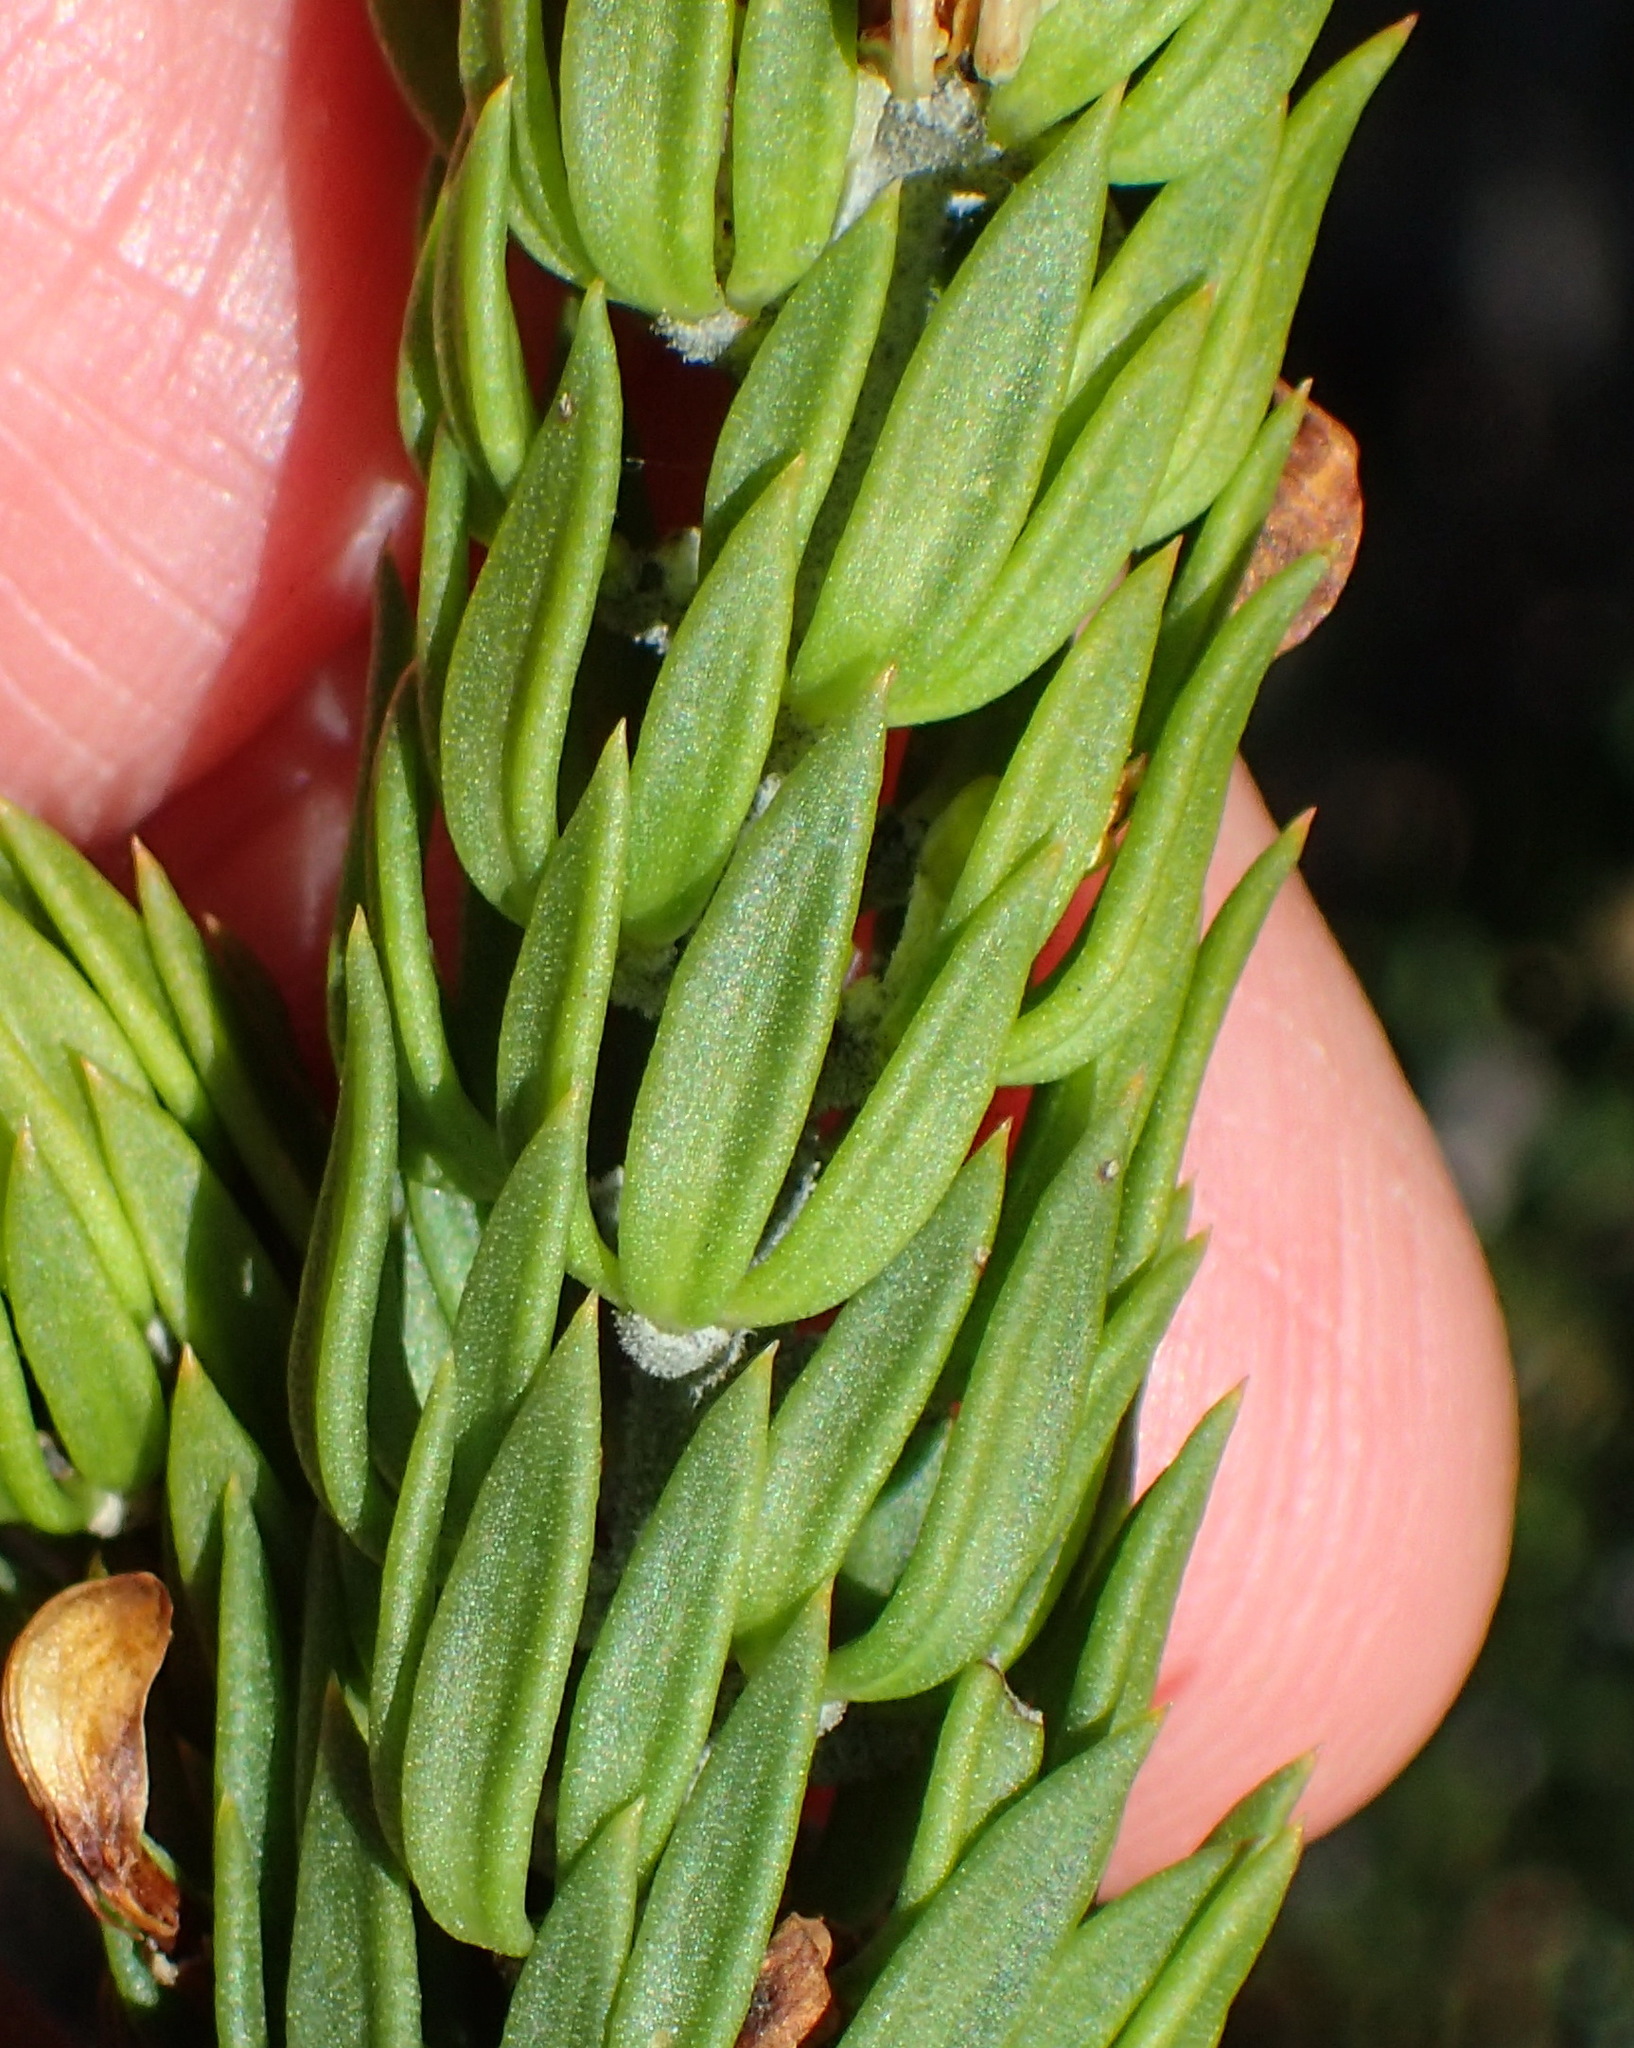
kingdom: Plantae
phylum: Tracheophyta
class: Magnoliopsida
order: Fabales
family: Fabaceae
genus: Aspalathus
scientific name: Aspalathus mundiana
